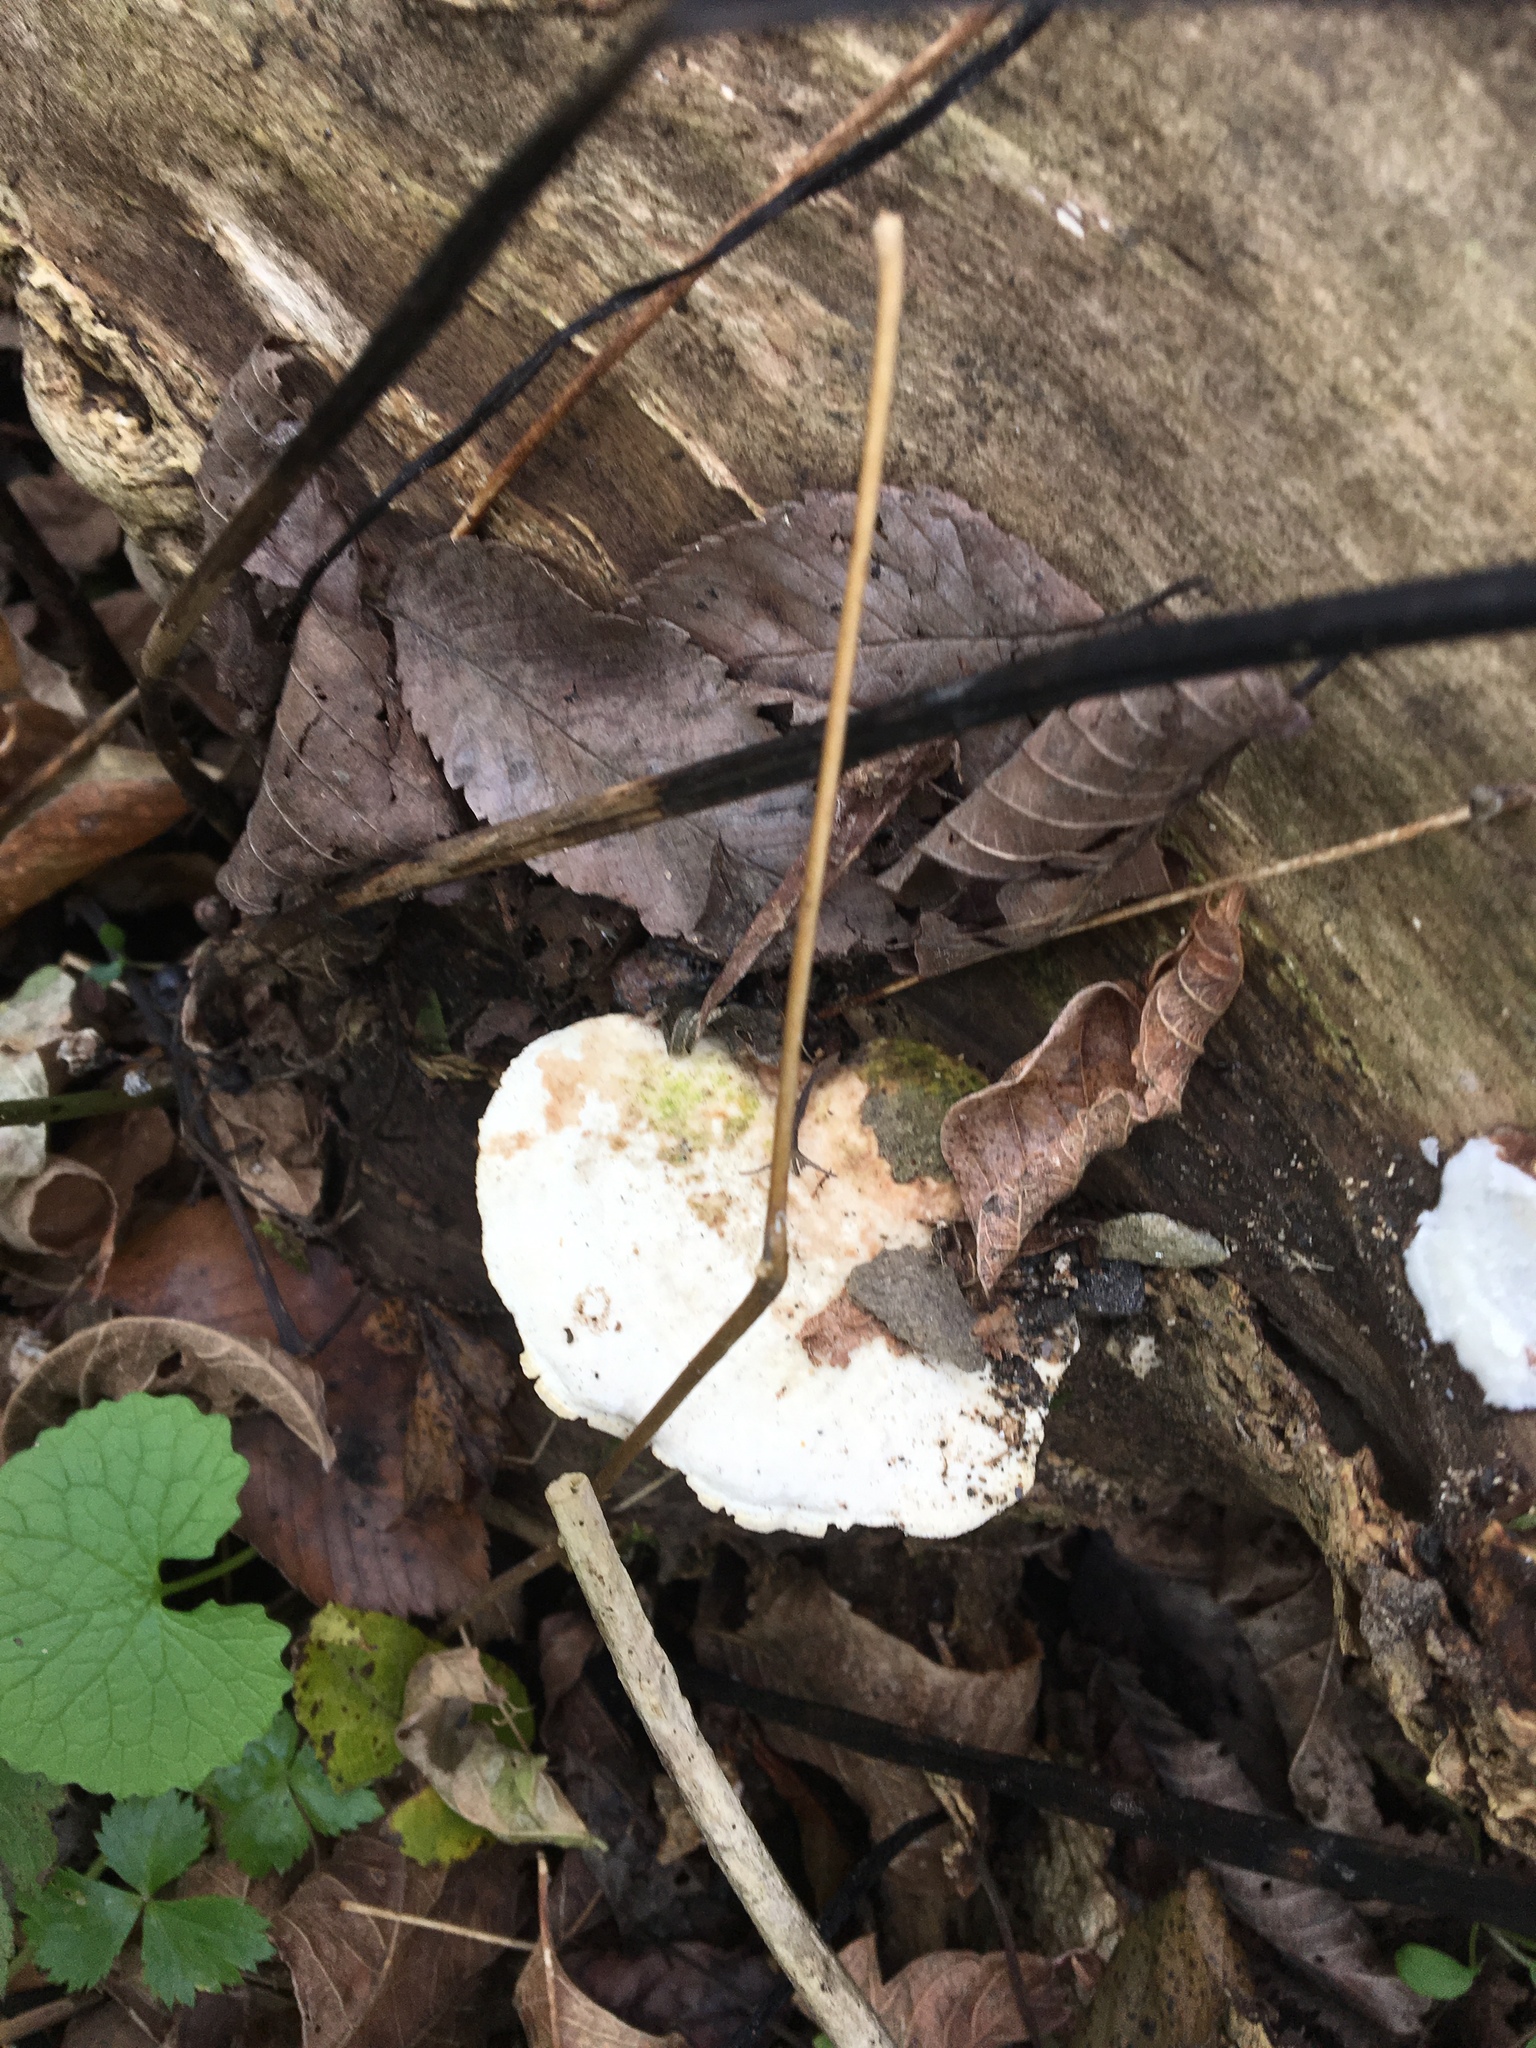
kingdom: Fungi
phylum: Basidiomycota
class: Agaricomycetes
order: Polyporales
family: Polyporaceae
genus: Trametes
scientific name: Trametes gibbosa
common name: Lumpy bracket
